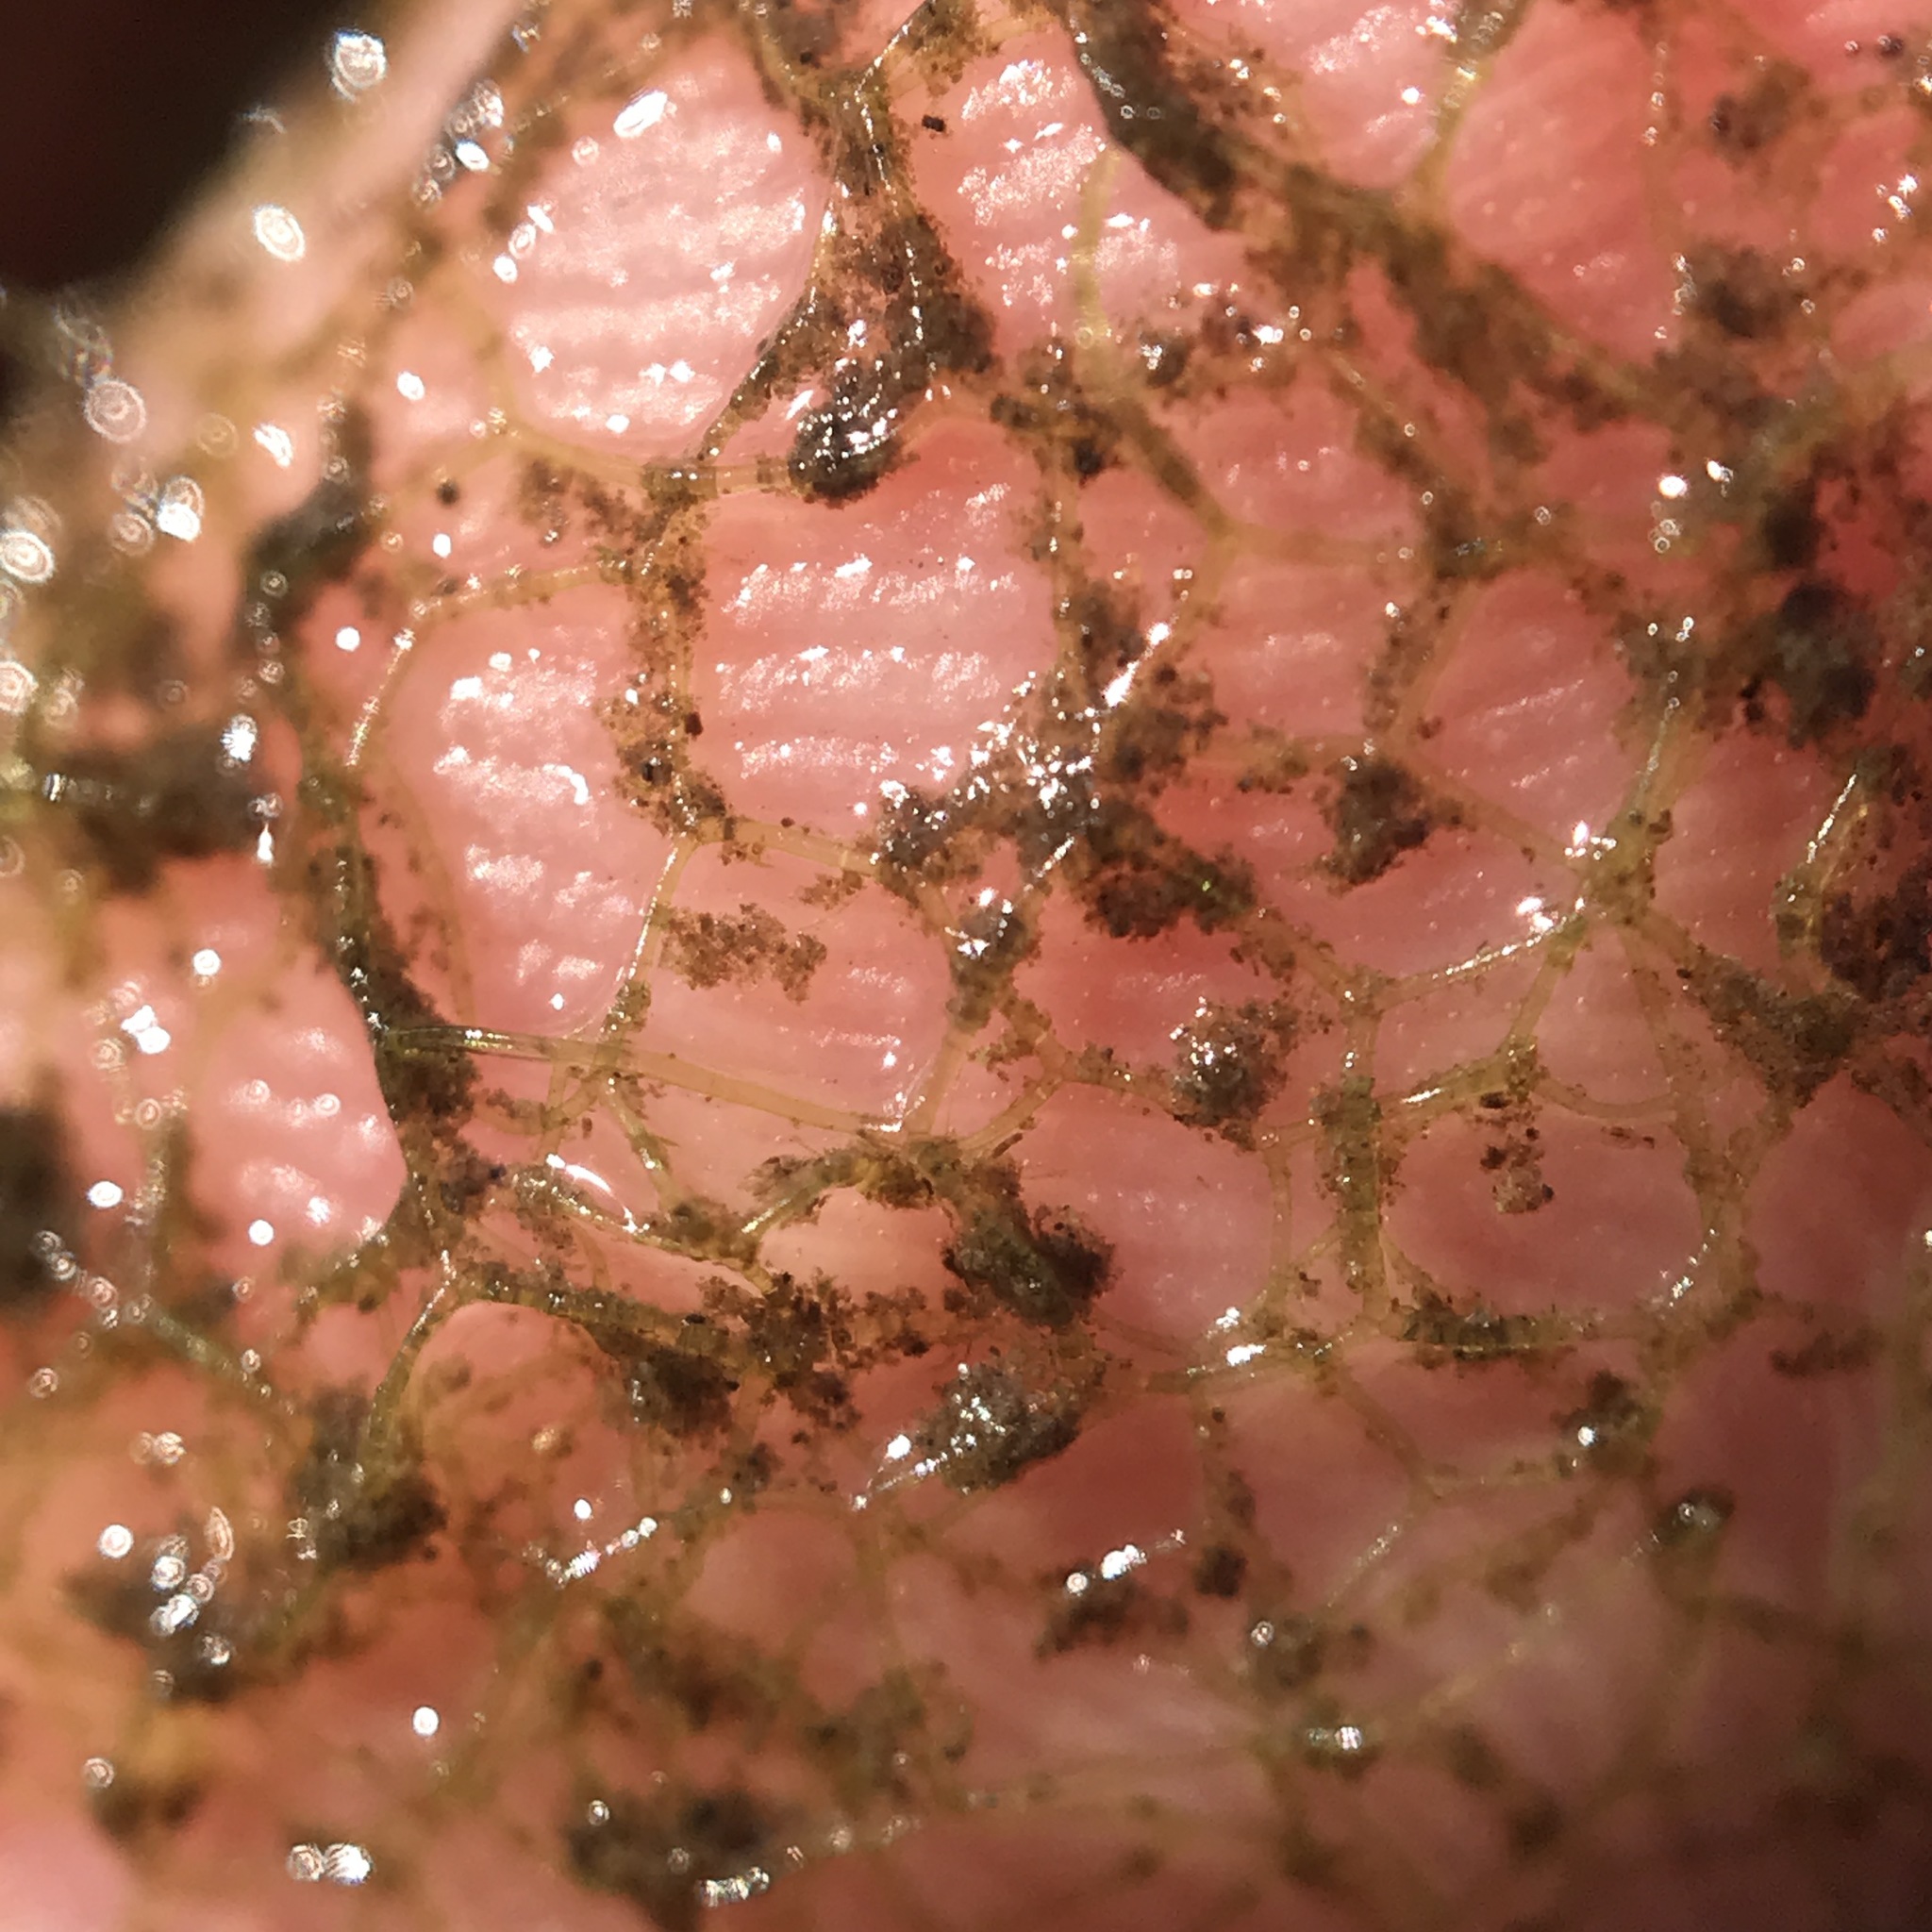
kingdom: Plantae
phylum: Chlorophyta
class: Chlorophyceae
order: Sphaeropleales
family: Hydrodictyaceae
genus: Hydrodictyon
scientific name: Hydrodictyon reticulatum
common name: Water net
